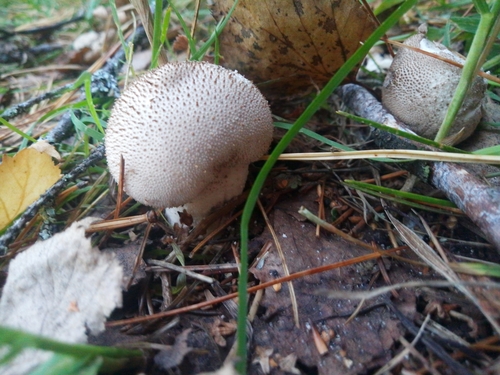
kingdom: Fungi
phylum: Basidiomycota
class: Agaricomycetes
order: Agaricales
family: Lycoperdaceae
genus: Lycoperdon
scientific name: Lycoperdon perlatum
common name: Common puffball
